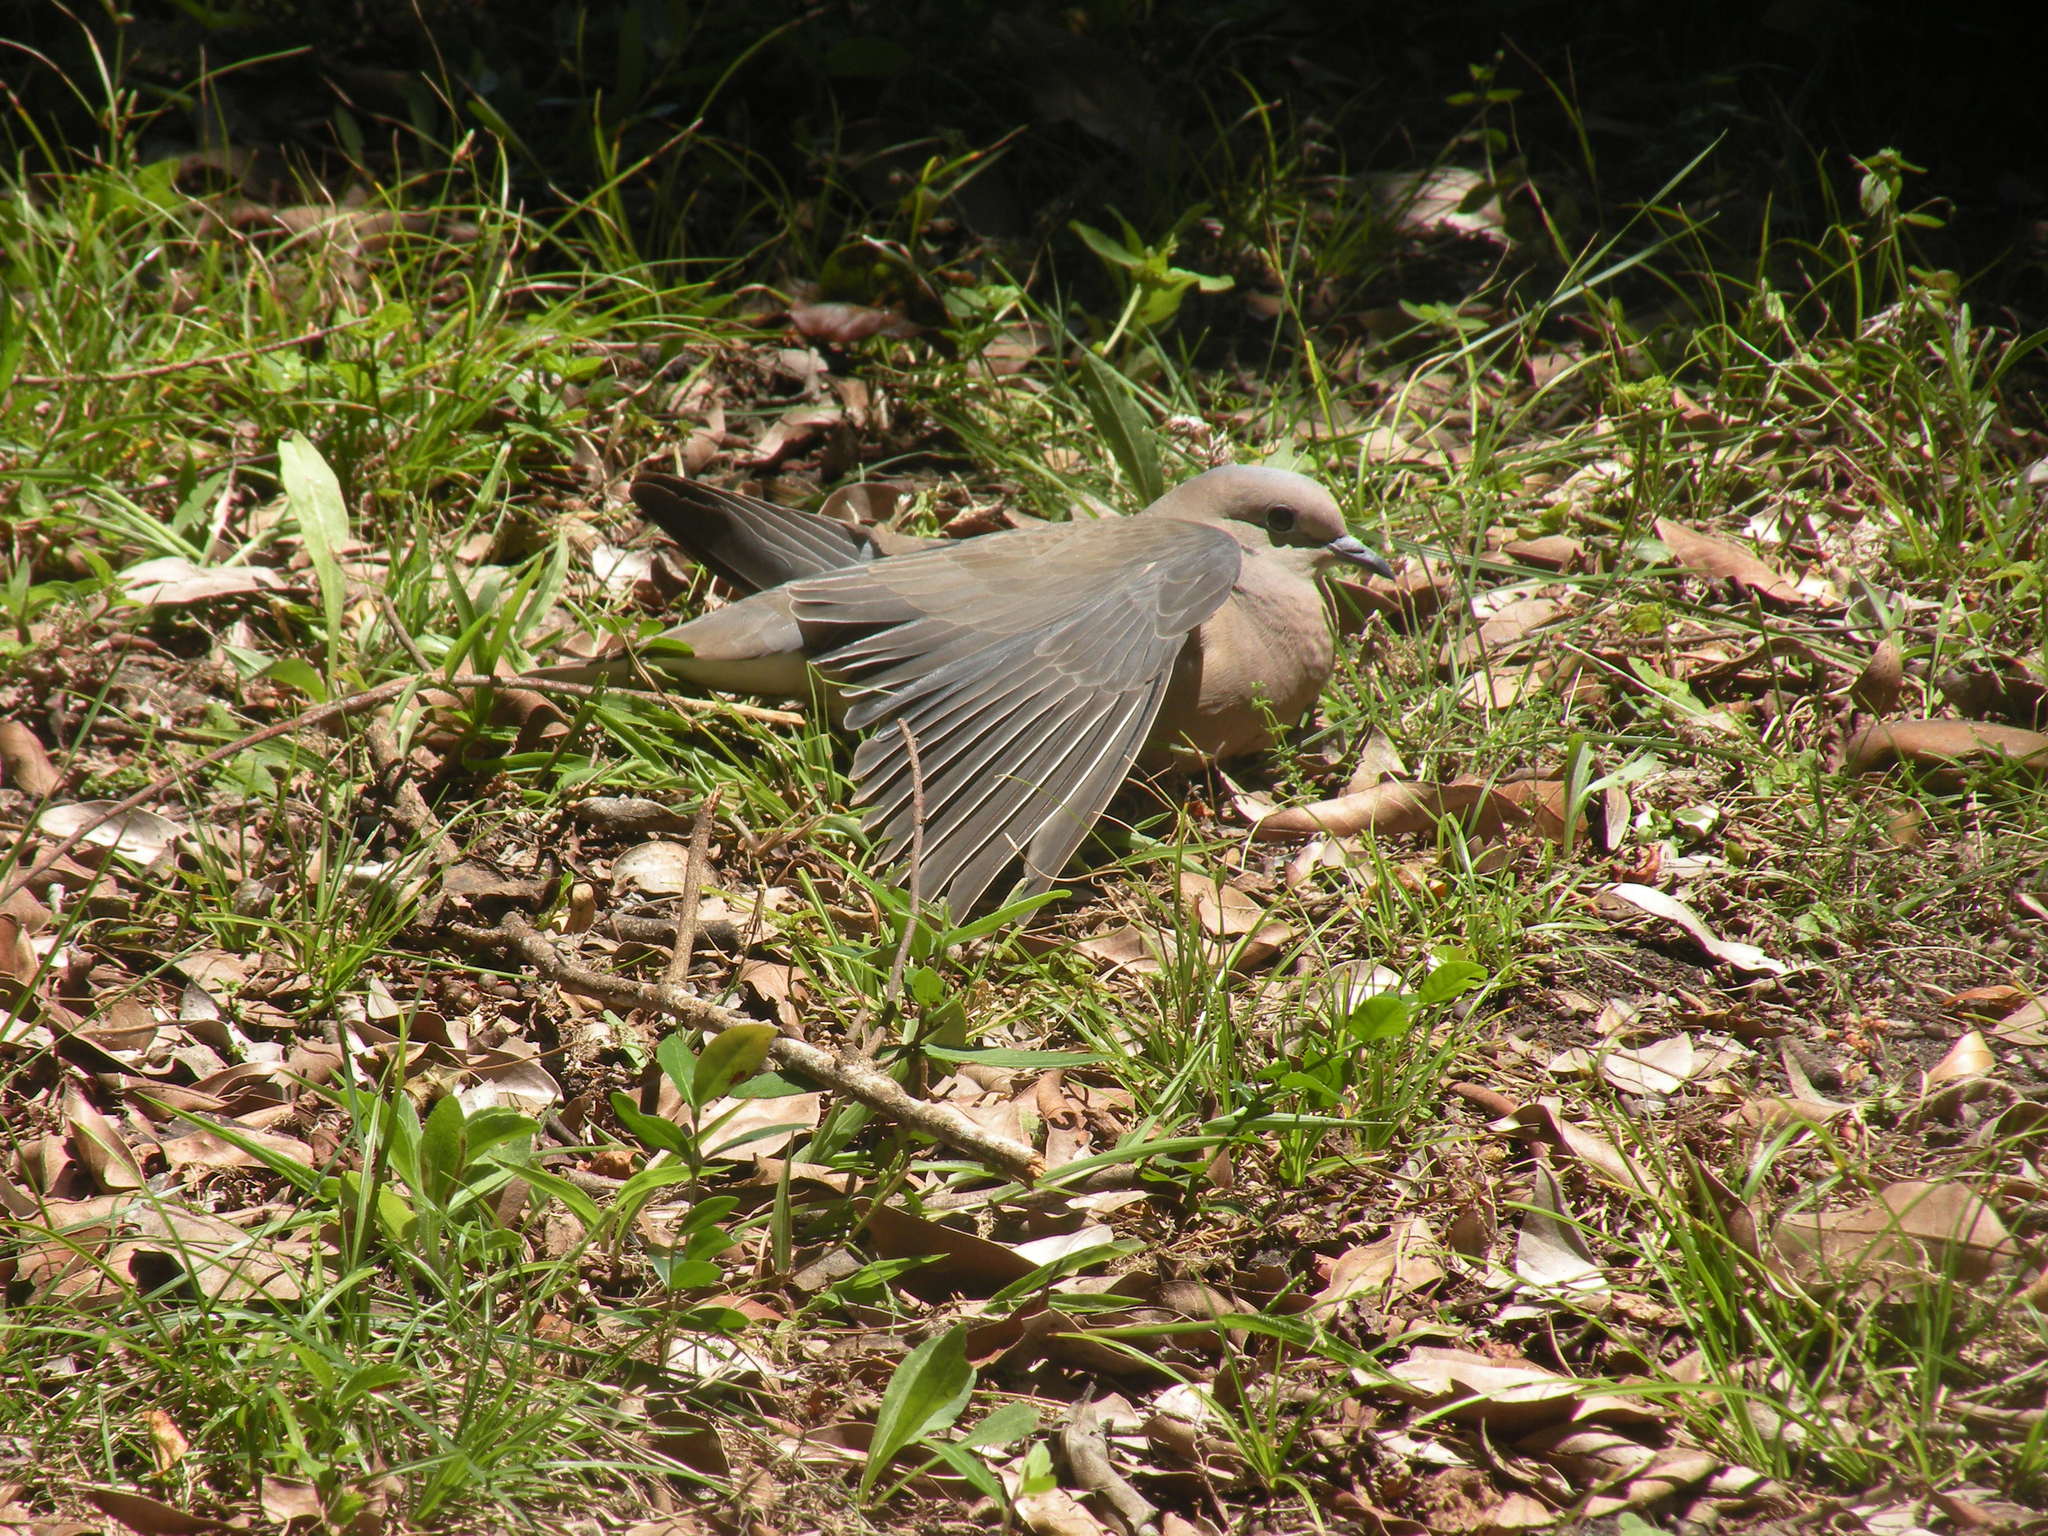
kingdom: Animalia
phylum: Chordata
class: Aves
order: Columbiformes
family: Columbidae
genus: Zenaida
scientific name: Zenaida auriculata
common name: Eared dove
